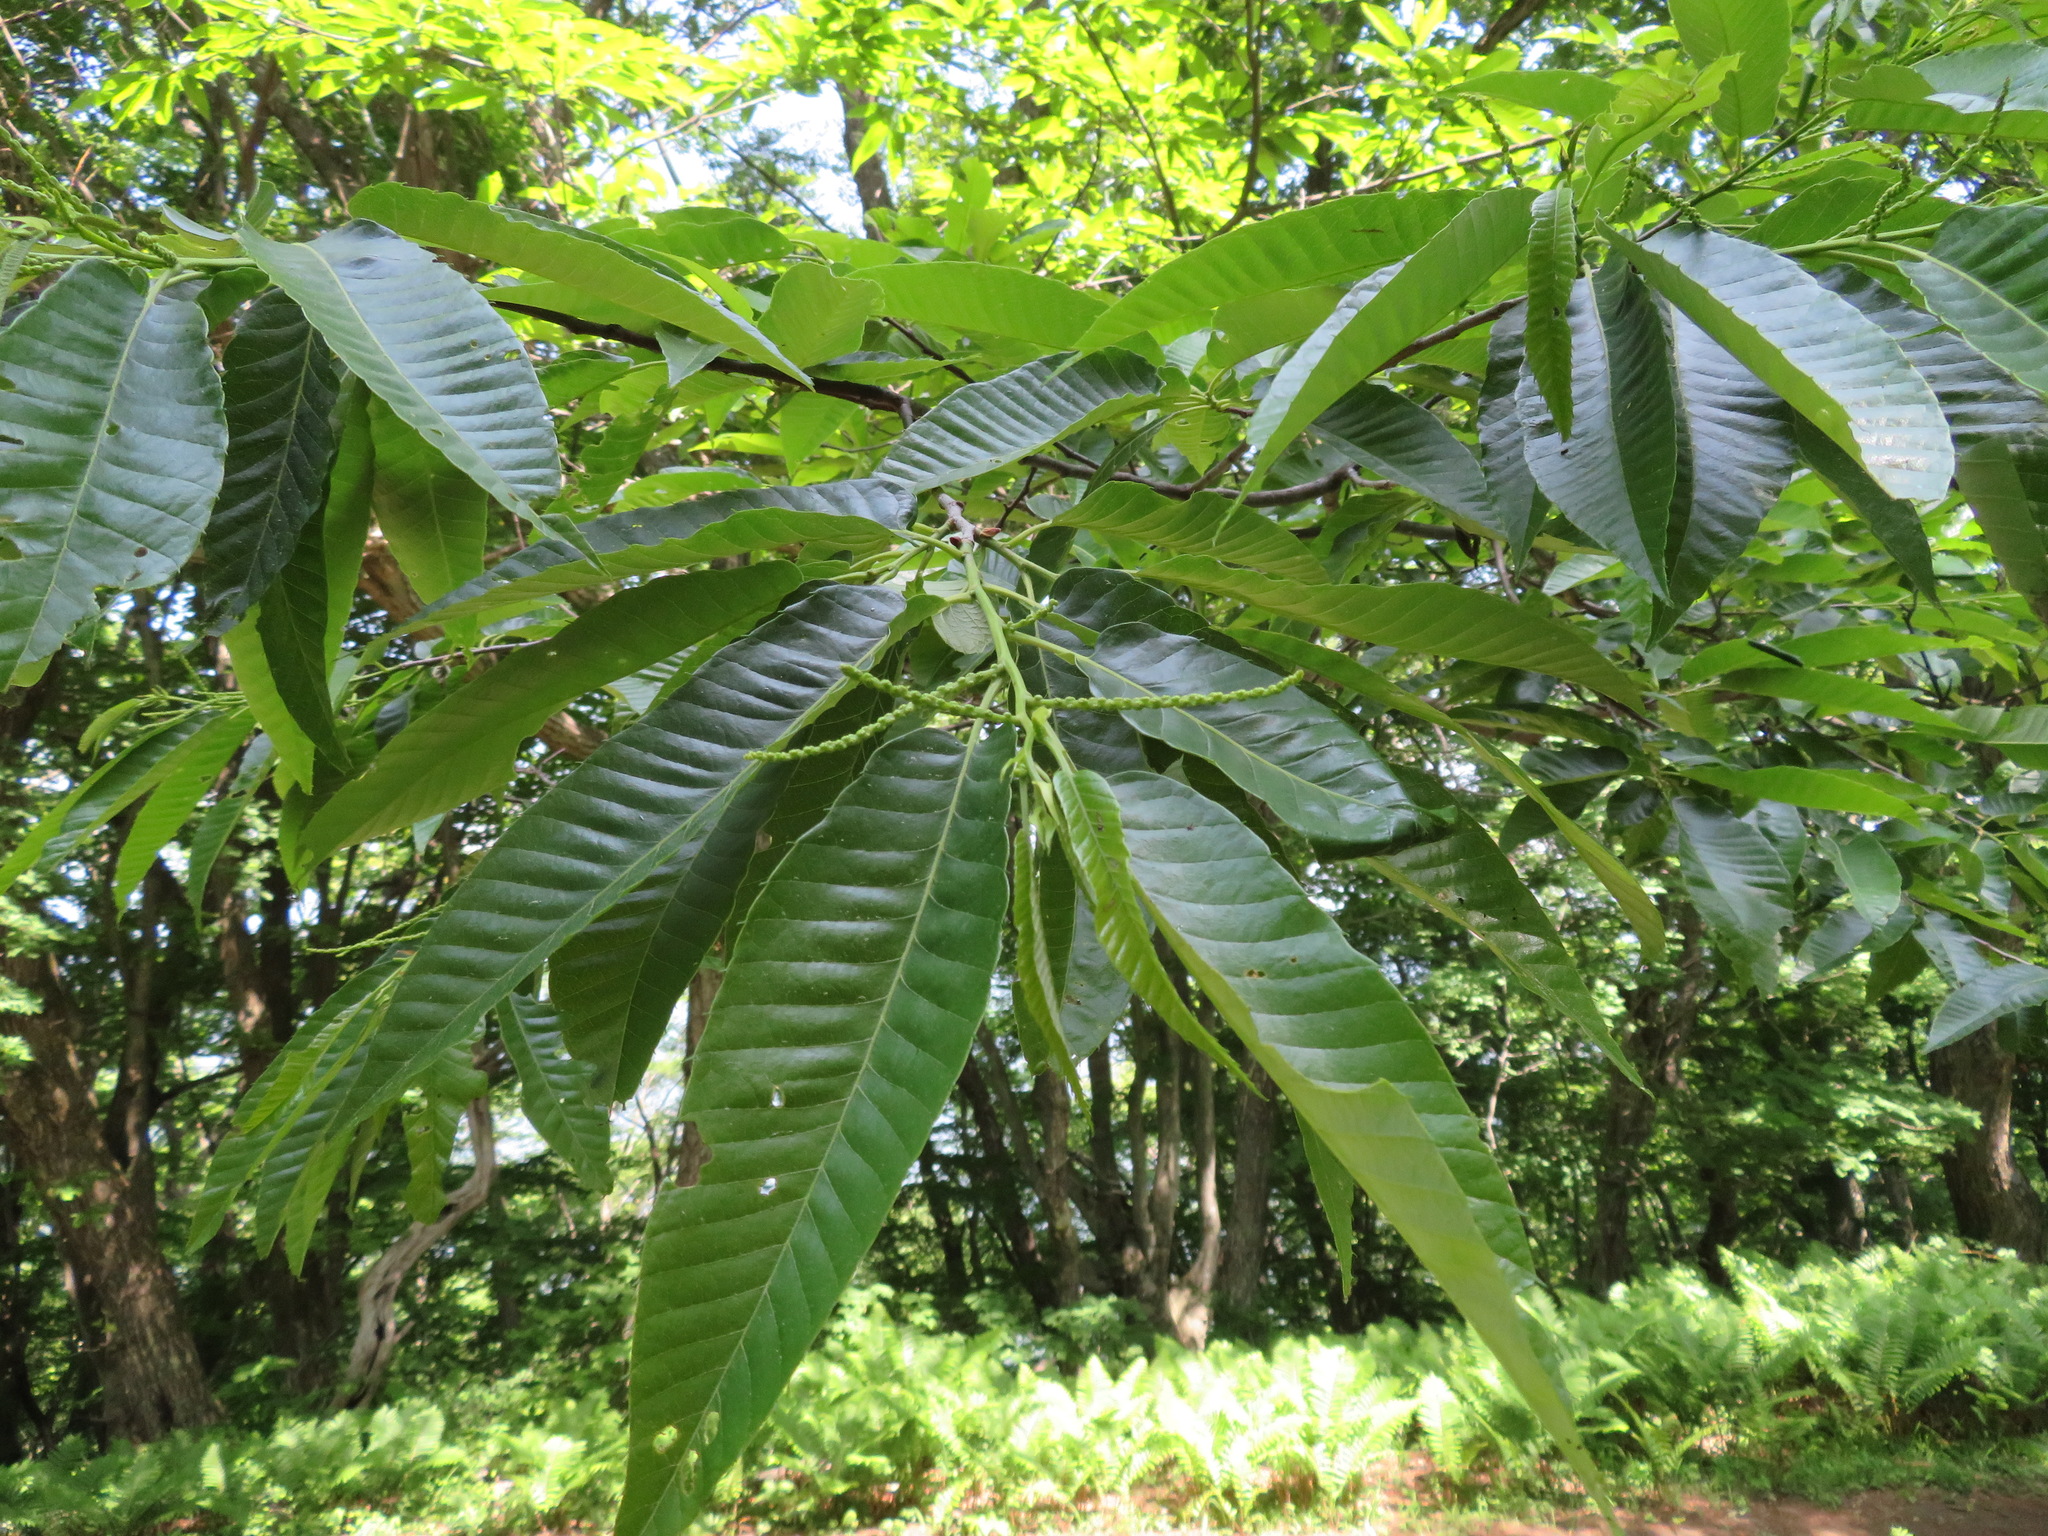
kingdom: Plantae
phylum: Tracheophyta
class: Magnoliopsida
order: Fagales
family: Fagaceae
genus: Castanea
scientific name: Castanea crenata
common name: Japanese chestnut
